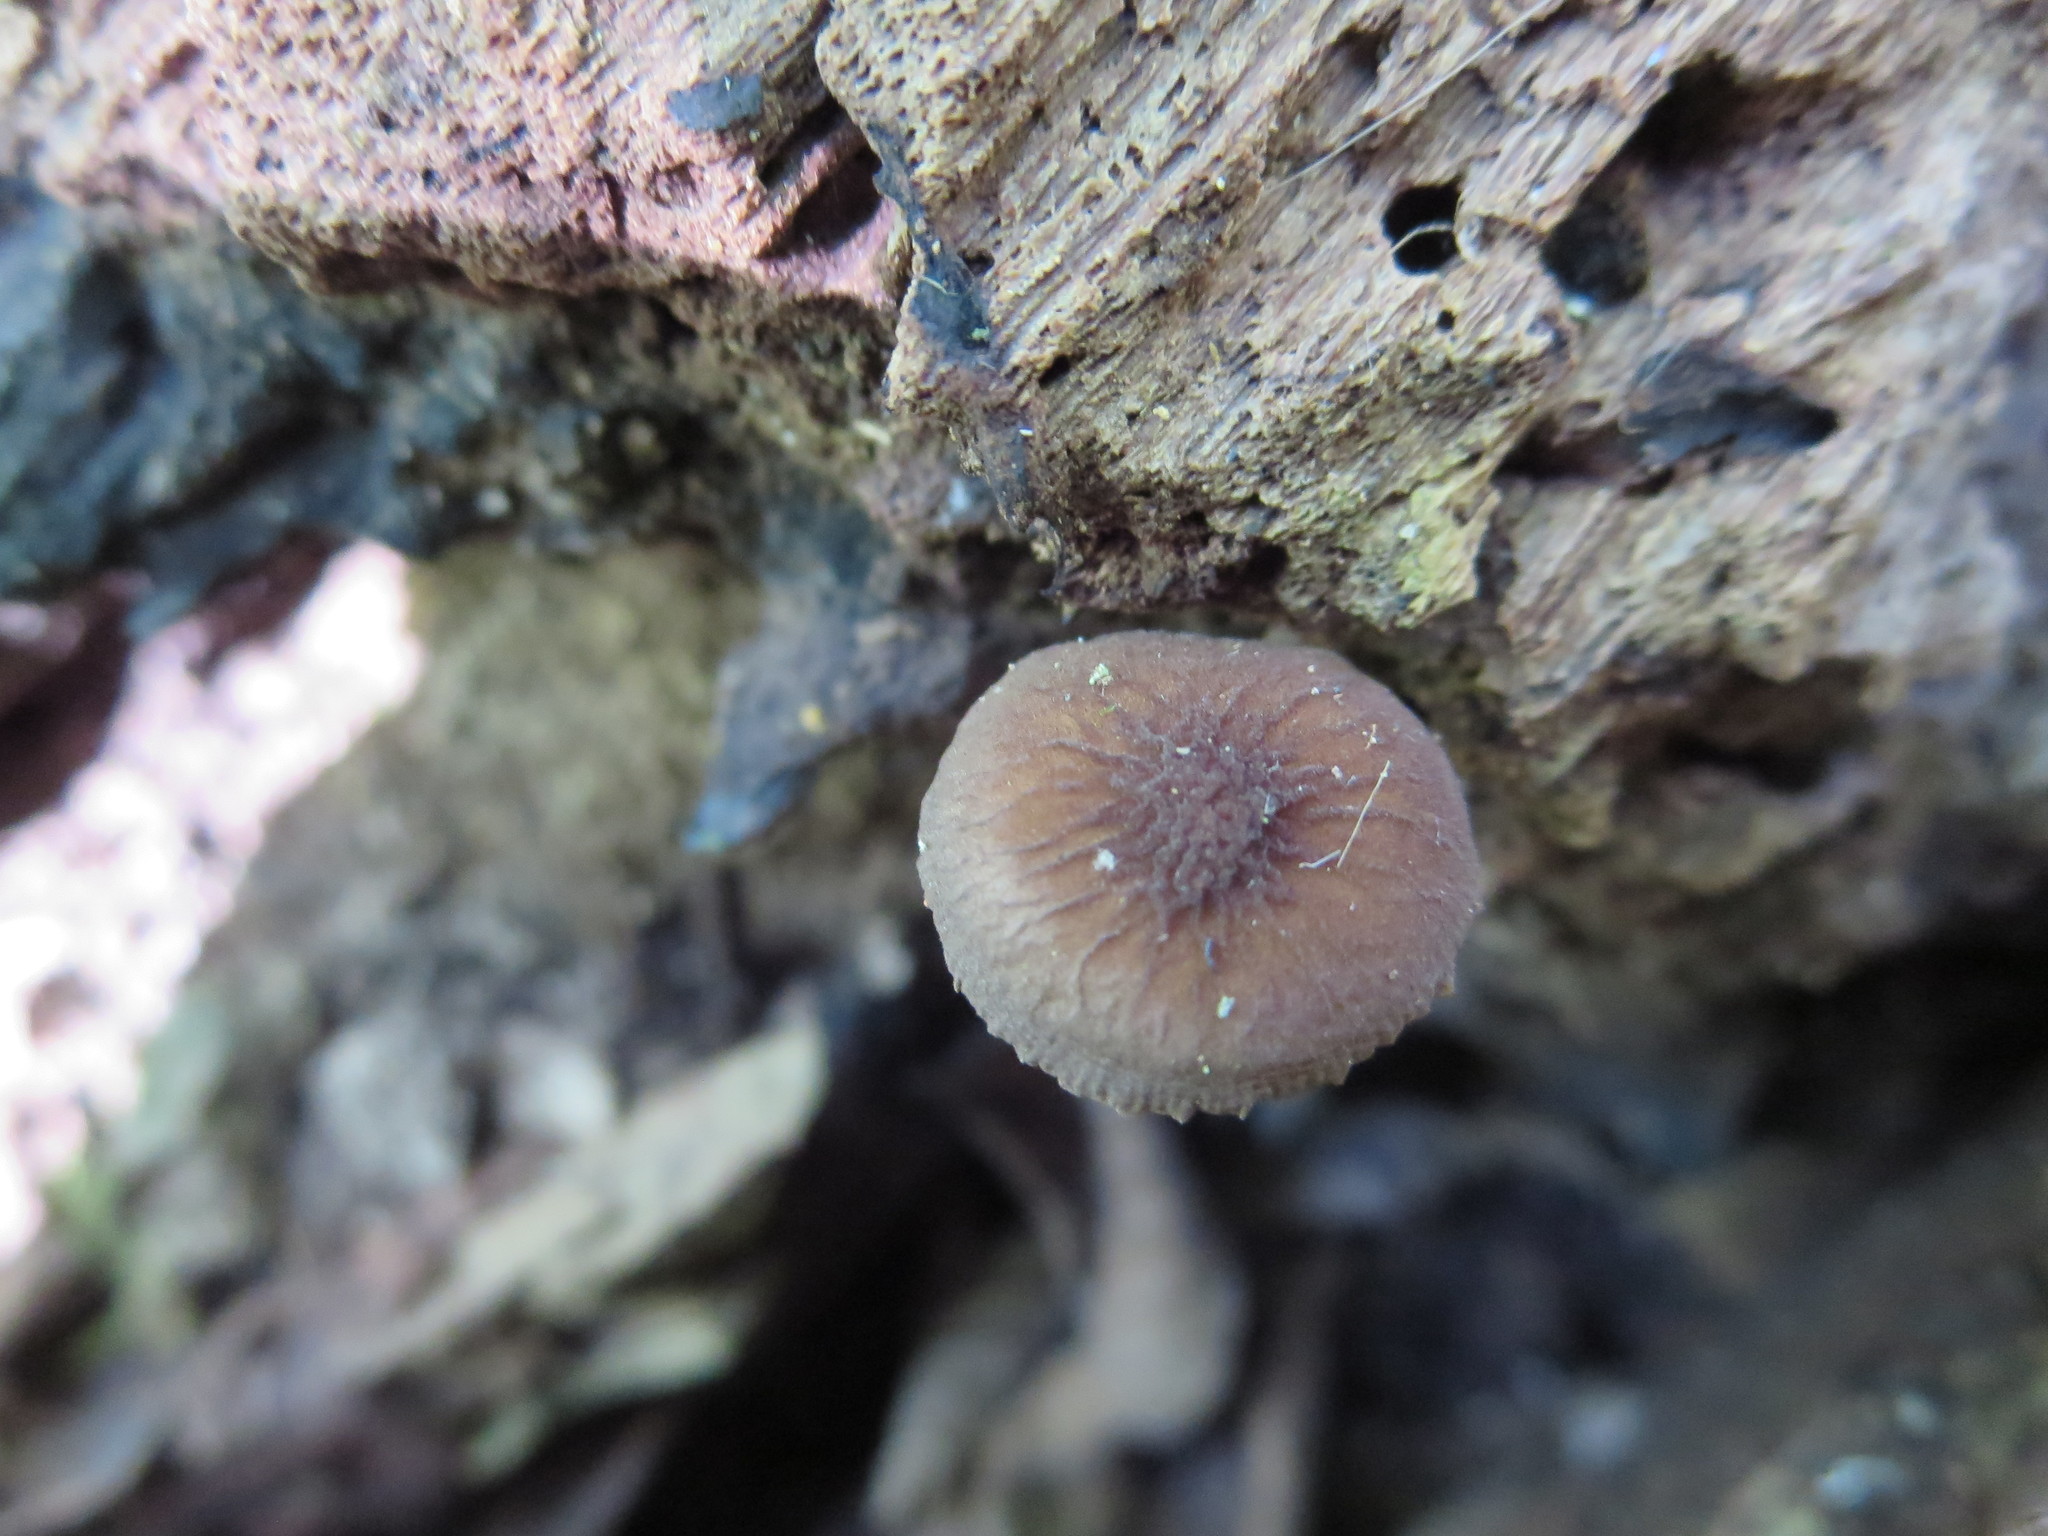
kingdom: Fungi
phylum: Basidiomycota
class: Agaricomycetes
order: Agaricales
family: Pluteaceae
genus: Pluteus
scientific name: Pluteus thomsonii
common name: Veined shield
